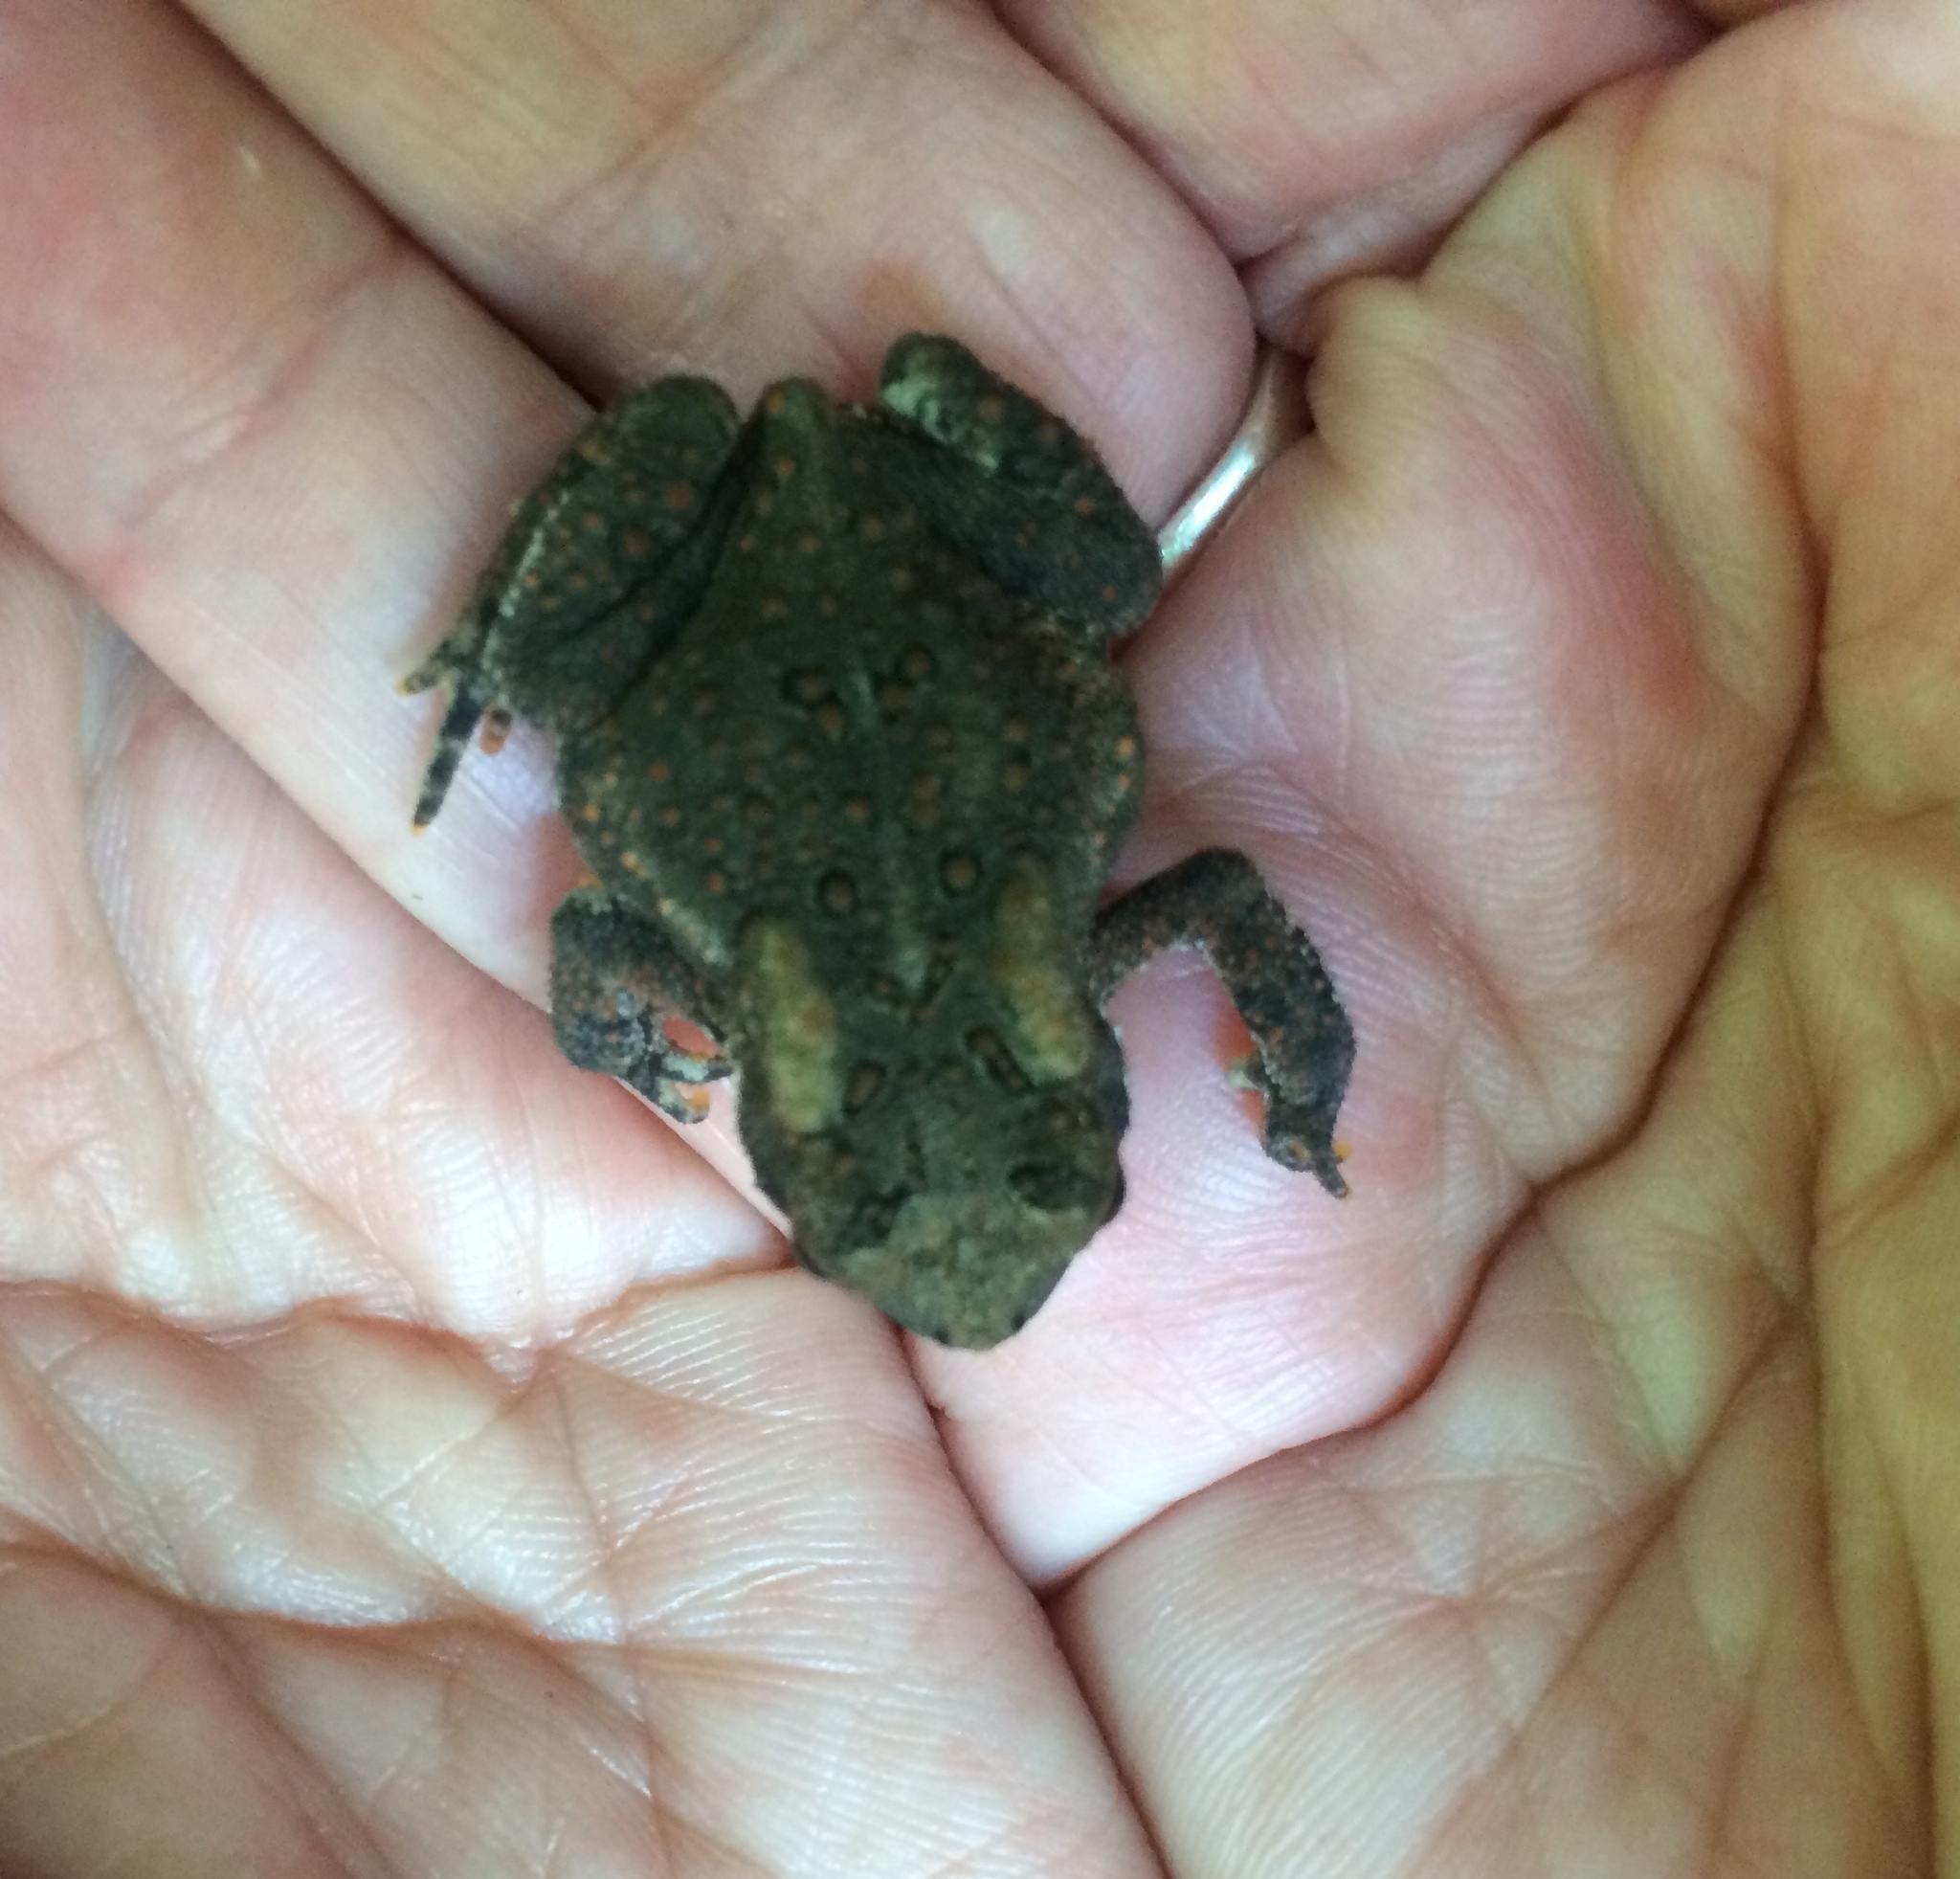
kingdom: Animalia
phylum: Chordata
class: Amphibia
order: Anura
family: Bufonidae
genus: Anaxyrus
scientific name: Anaxyrus americanus
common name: American toad
